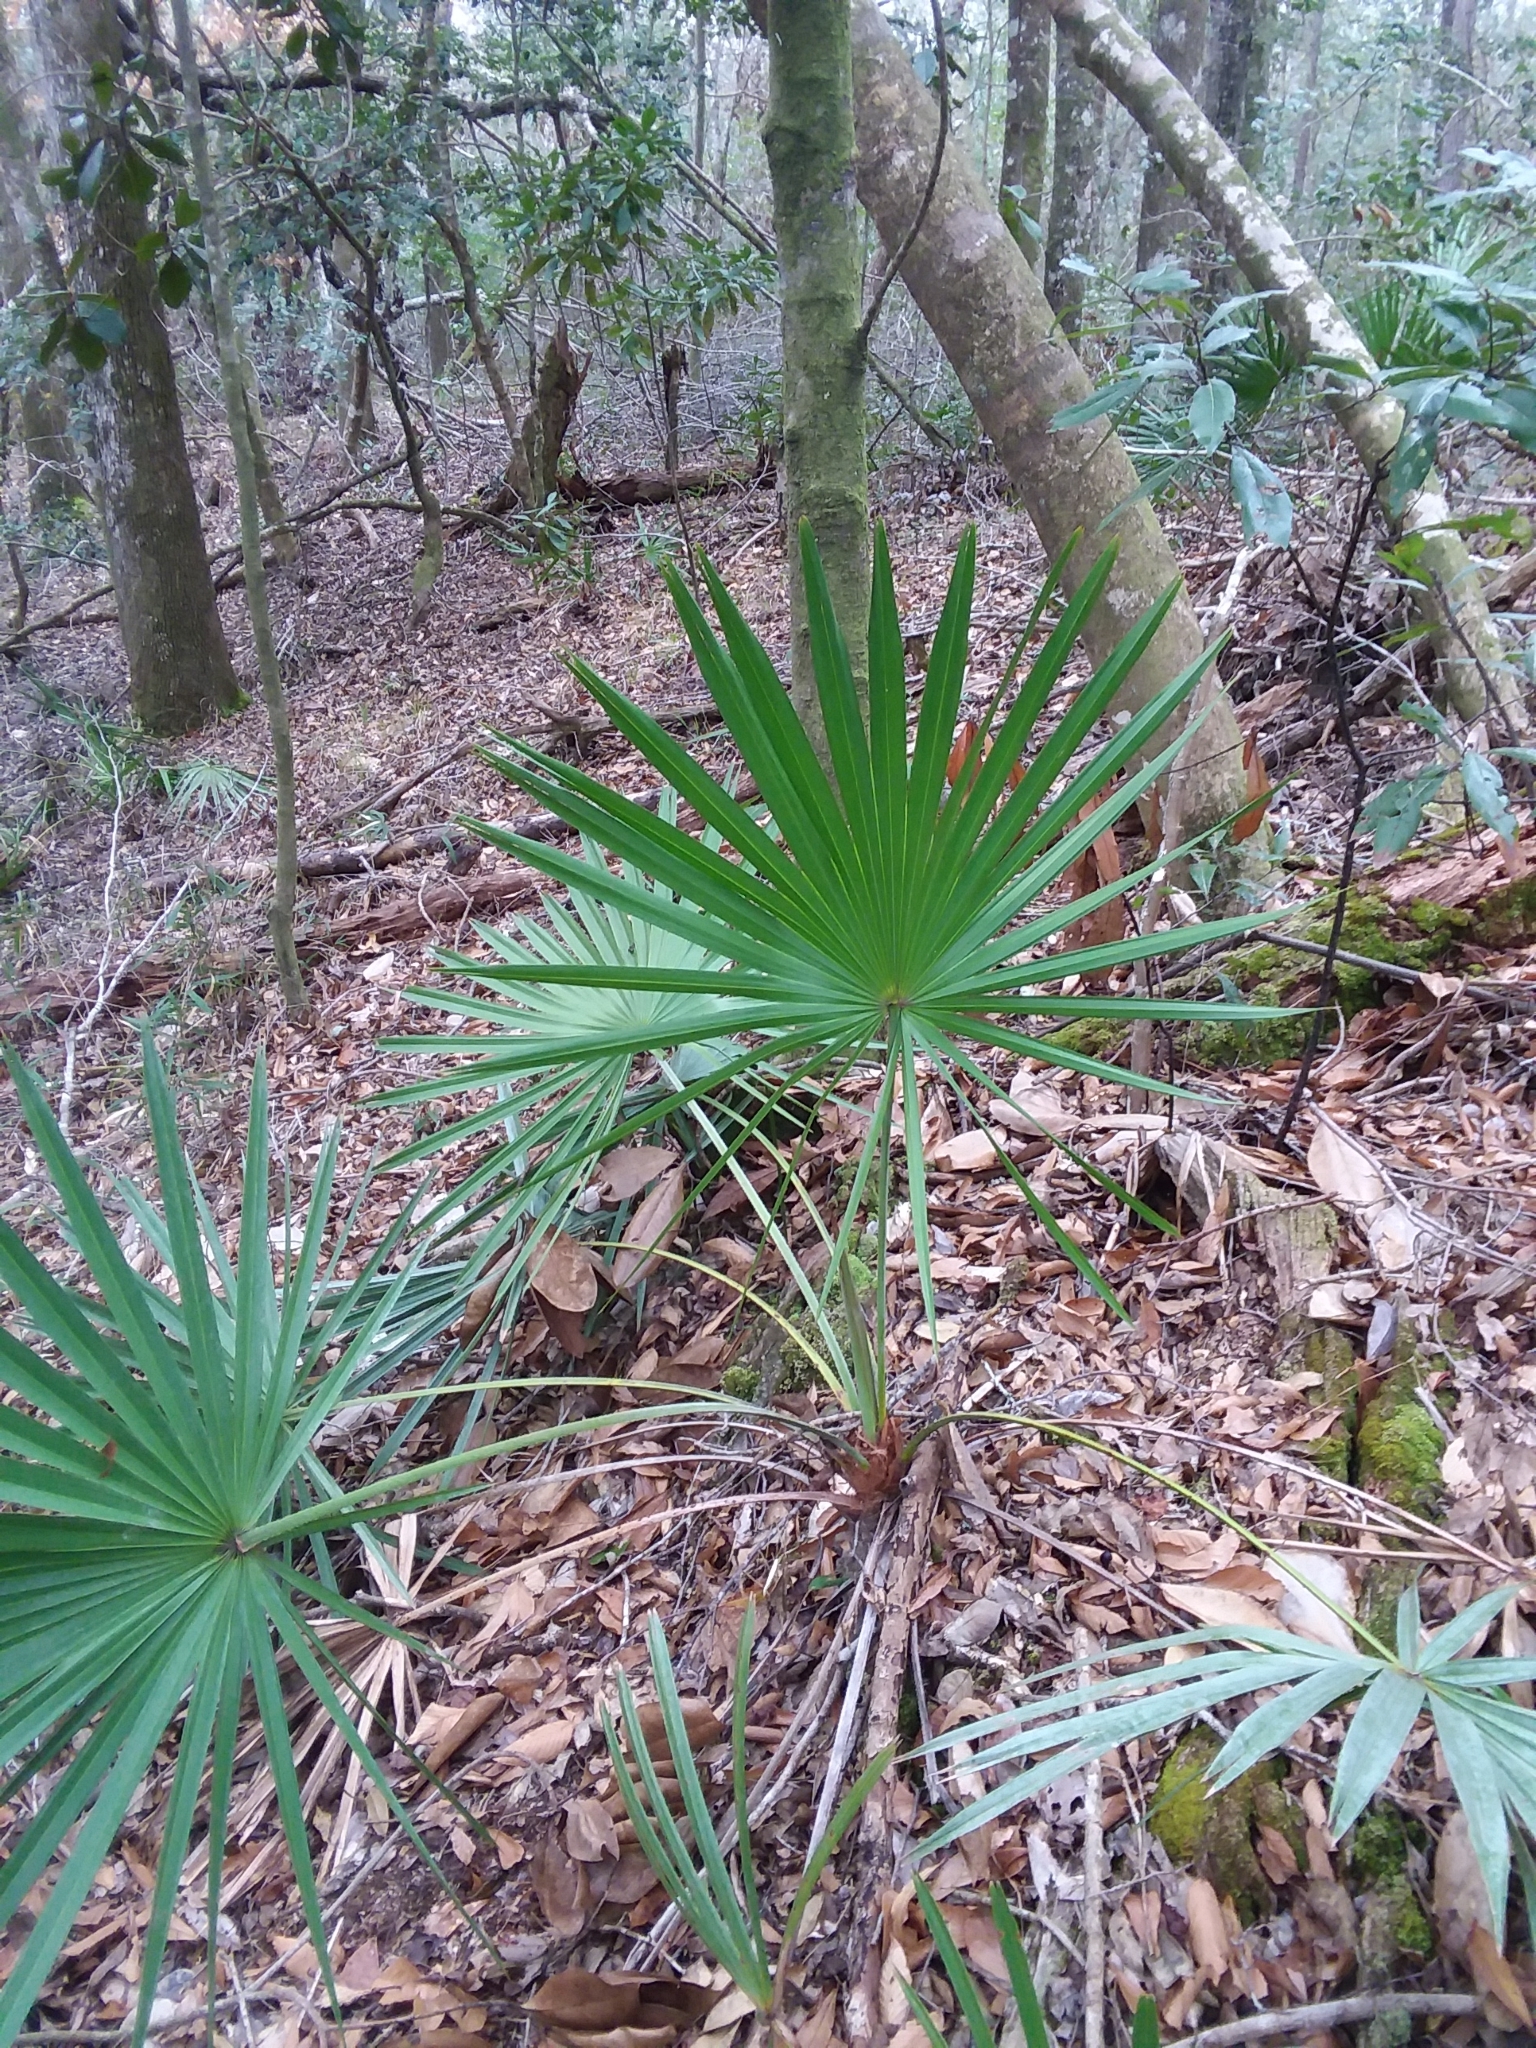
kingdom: Plantae
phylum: Tracheophyta
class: Liliopsida
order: Arecales
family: Arecaceae
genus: Serenoa
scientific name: Serenoa repens
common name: Saw-palmetto
